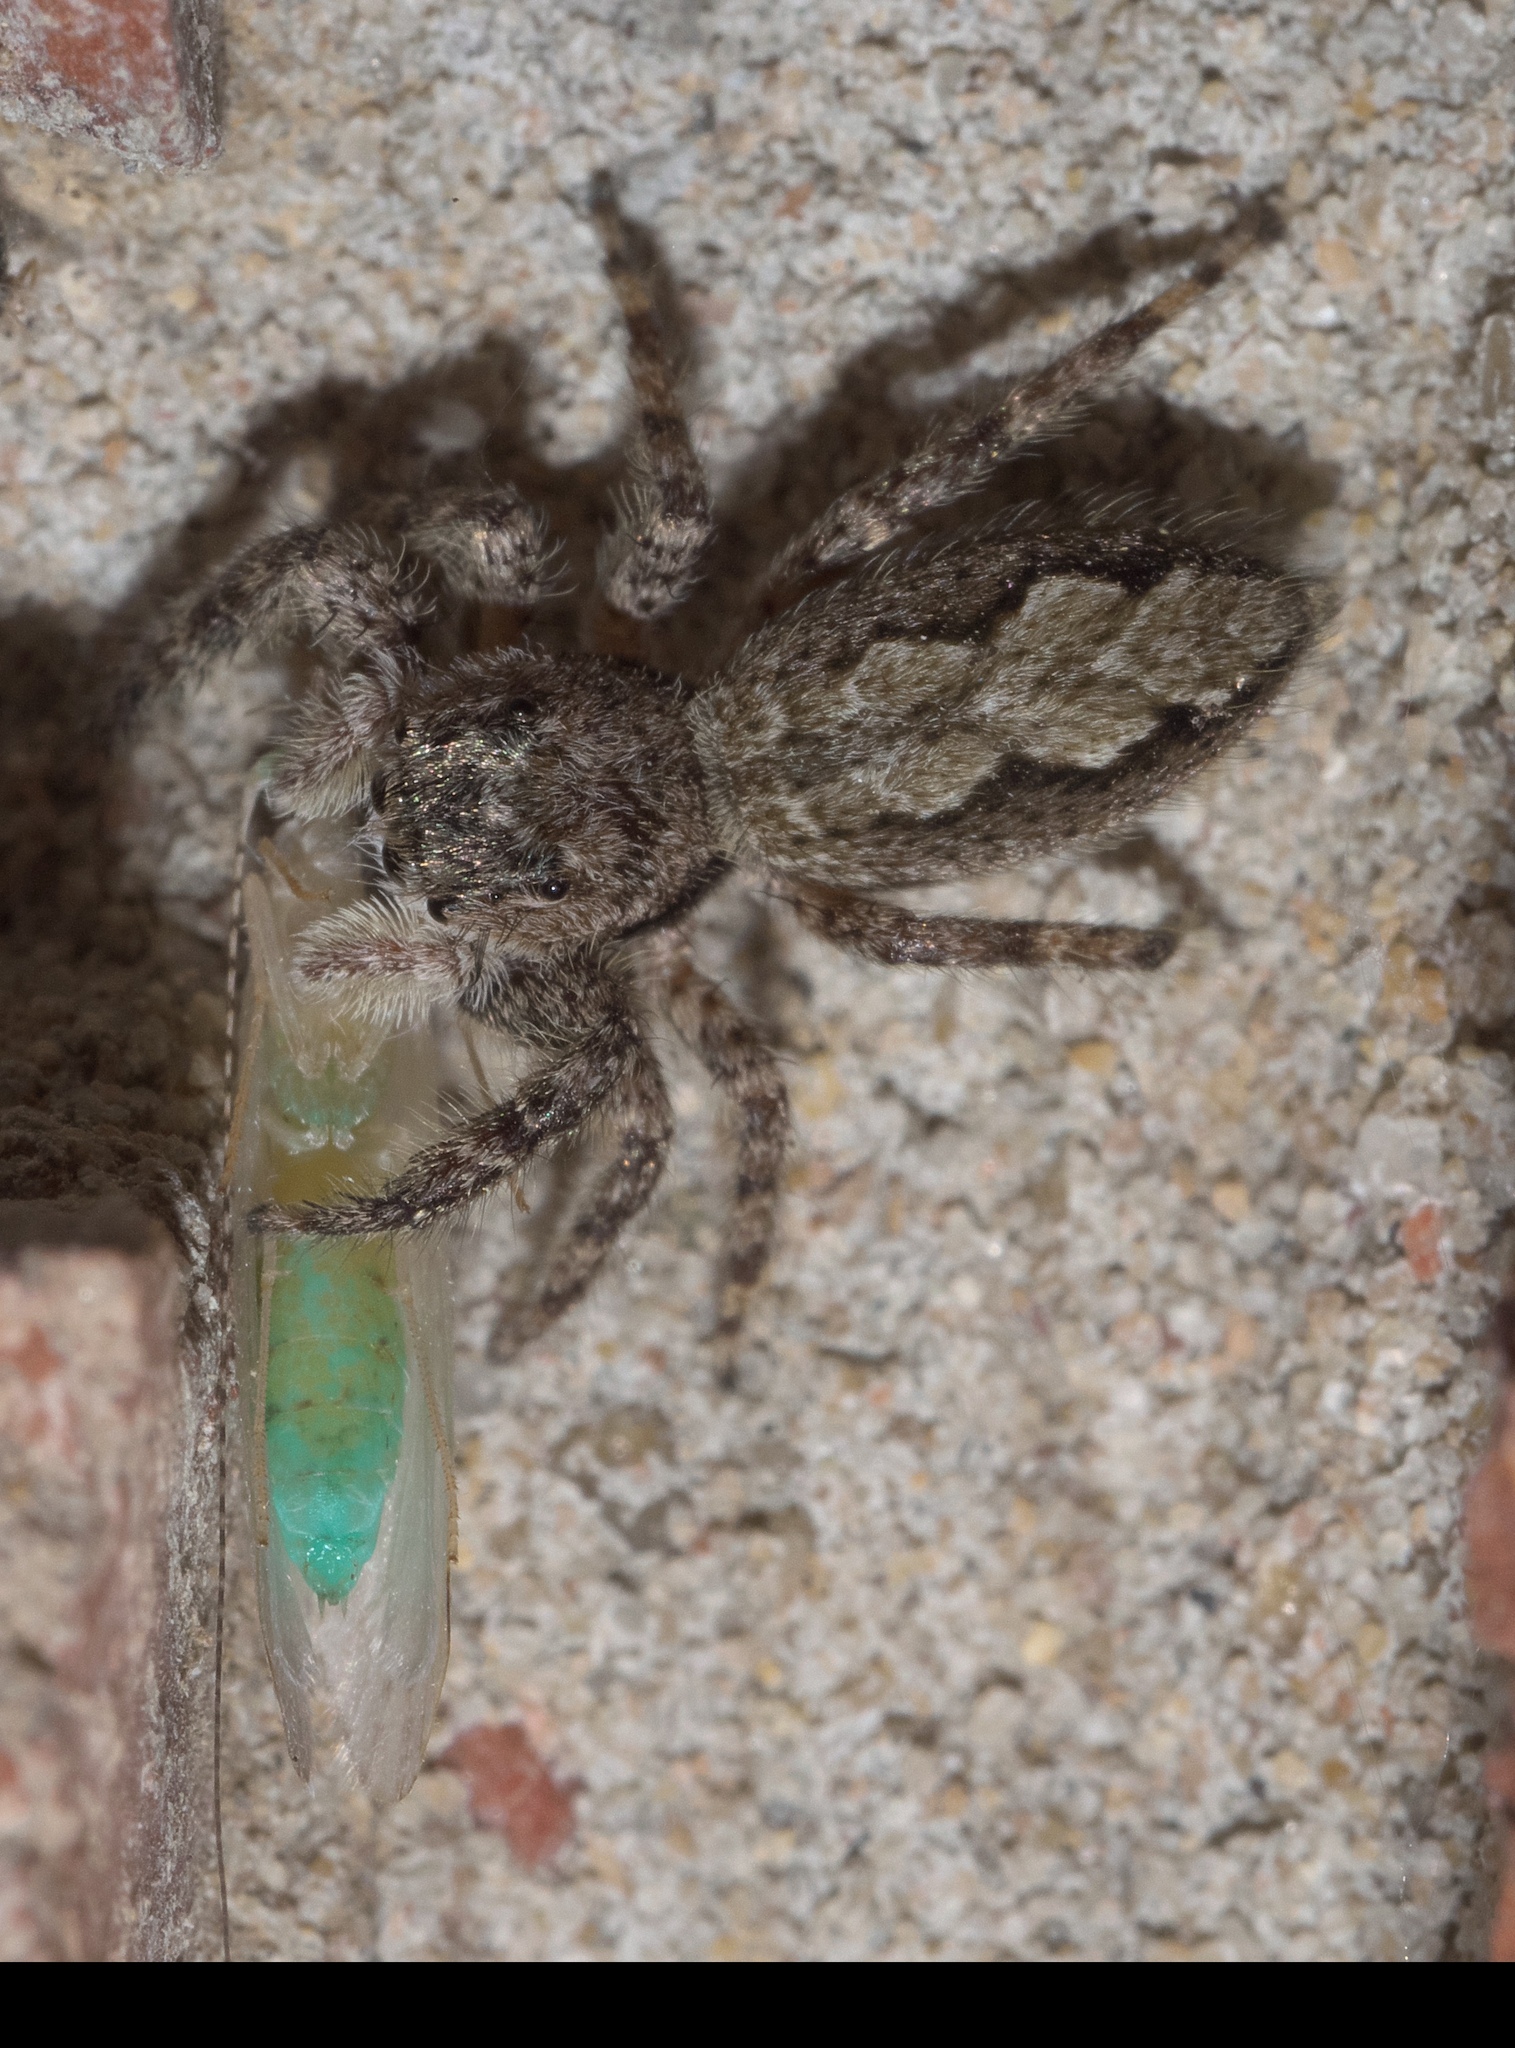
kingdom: Animalia
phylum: Arthropoda
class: Arachnida
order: Araneae
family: Salticidae
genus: Platycryptus
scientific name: Platycryptus undatus
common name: Tan jumping spider
